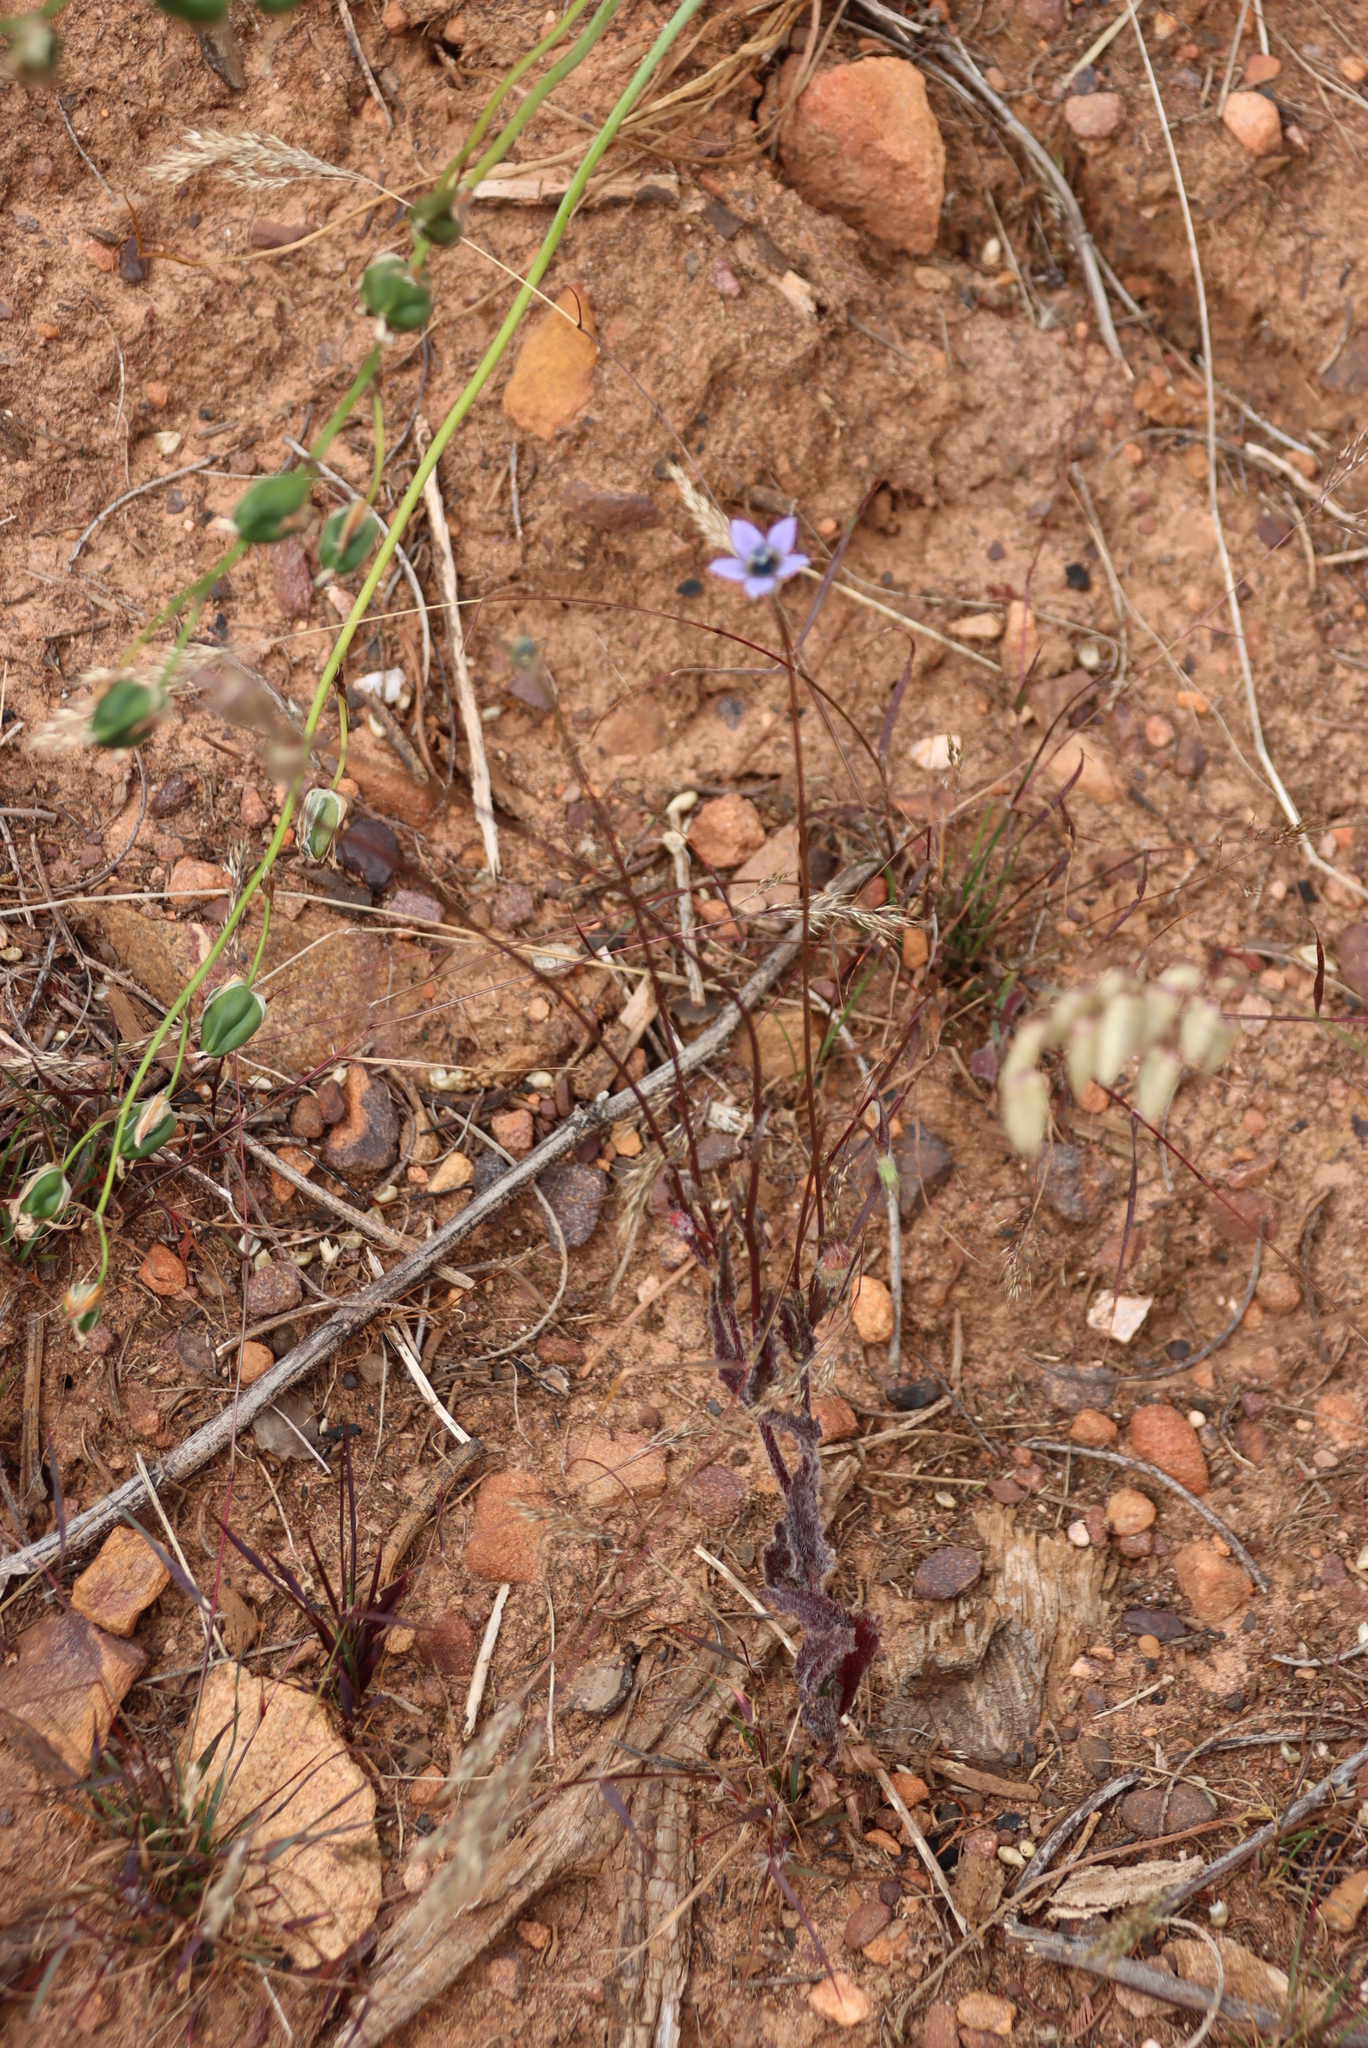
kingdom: Plantae
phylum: Tracheophyta
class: Magnoliopsida
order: Asterales
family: Campanulaceae
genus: Wahlenbergia
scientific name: Wahlenbergia capensis
